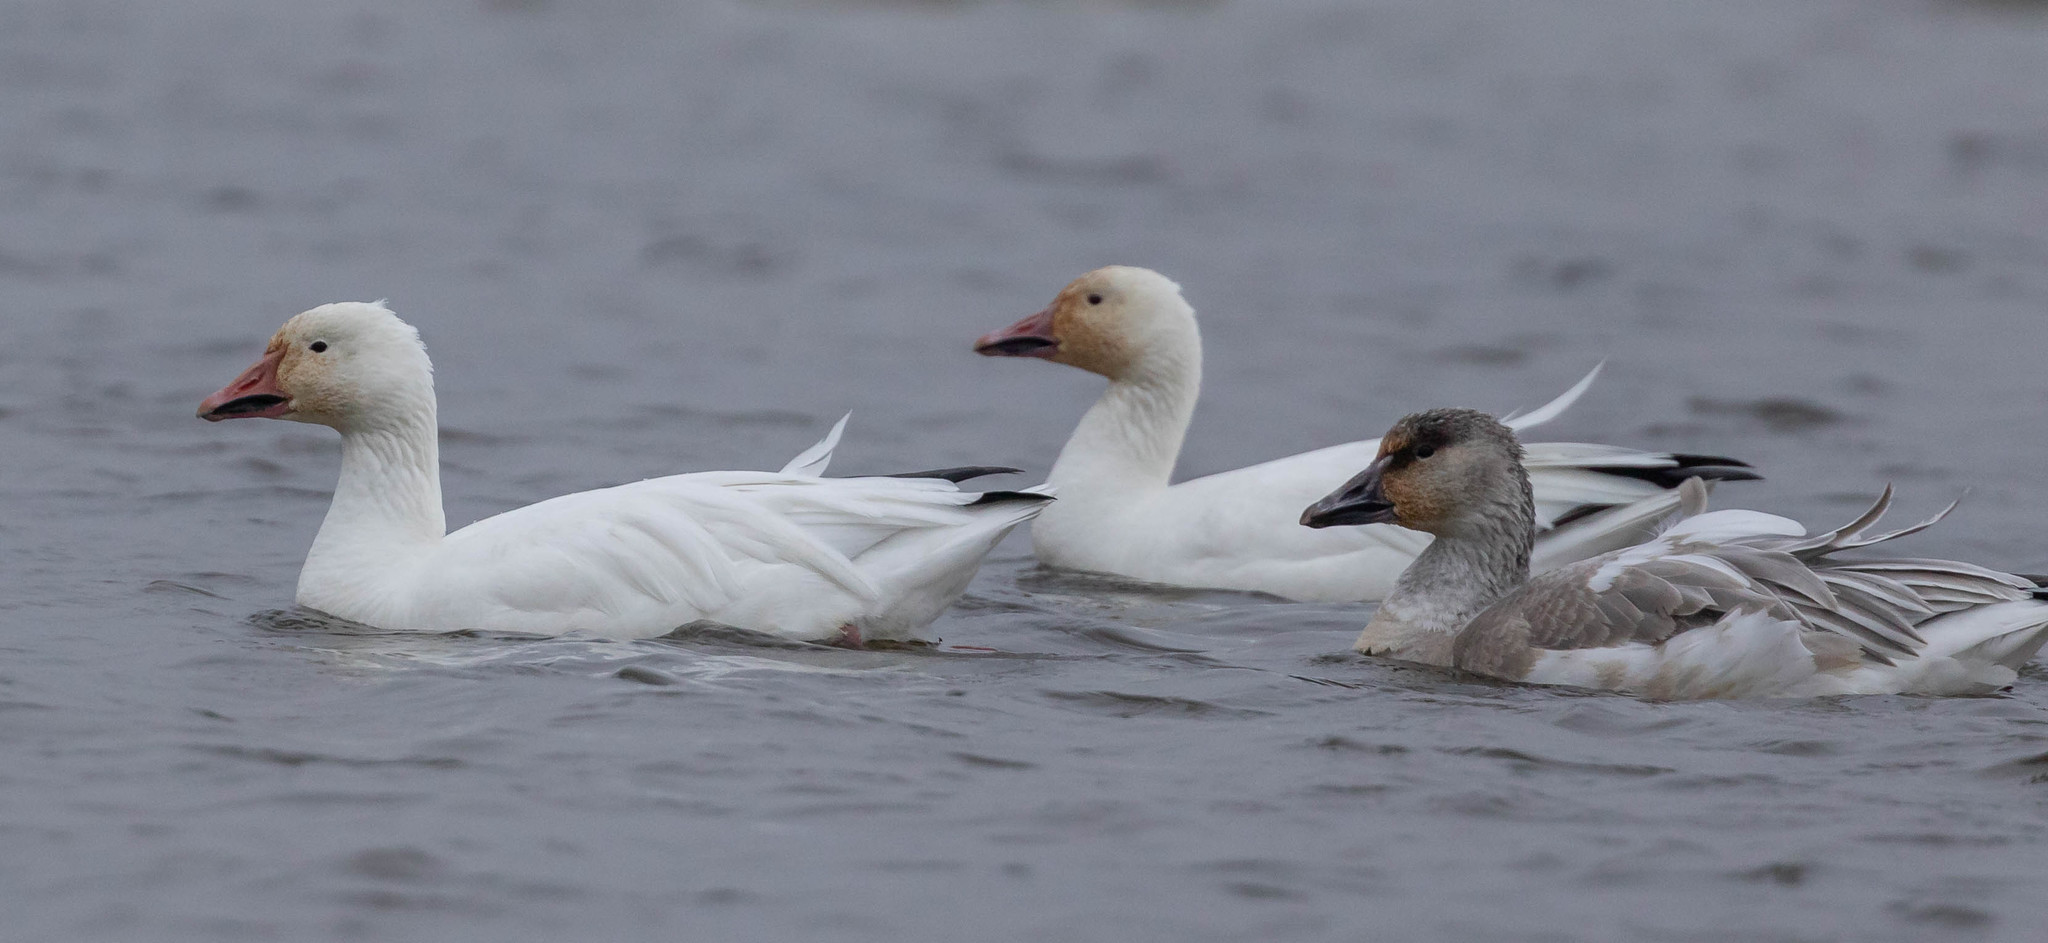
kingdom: Animalia
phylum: Chordata
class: Aves
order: Anseriformes
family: Anatidae
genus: Anser
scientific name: Anser caerulescens
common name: Snow goose
